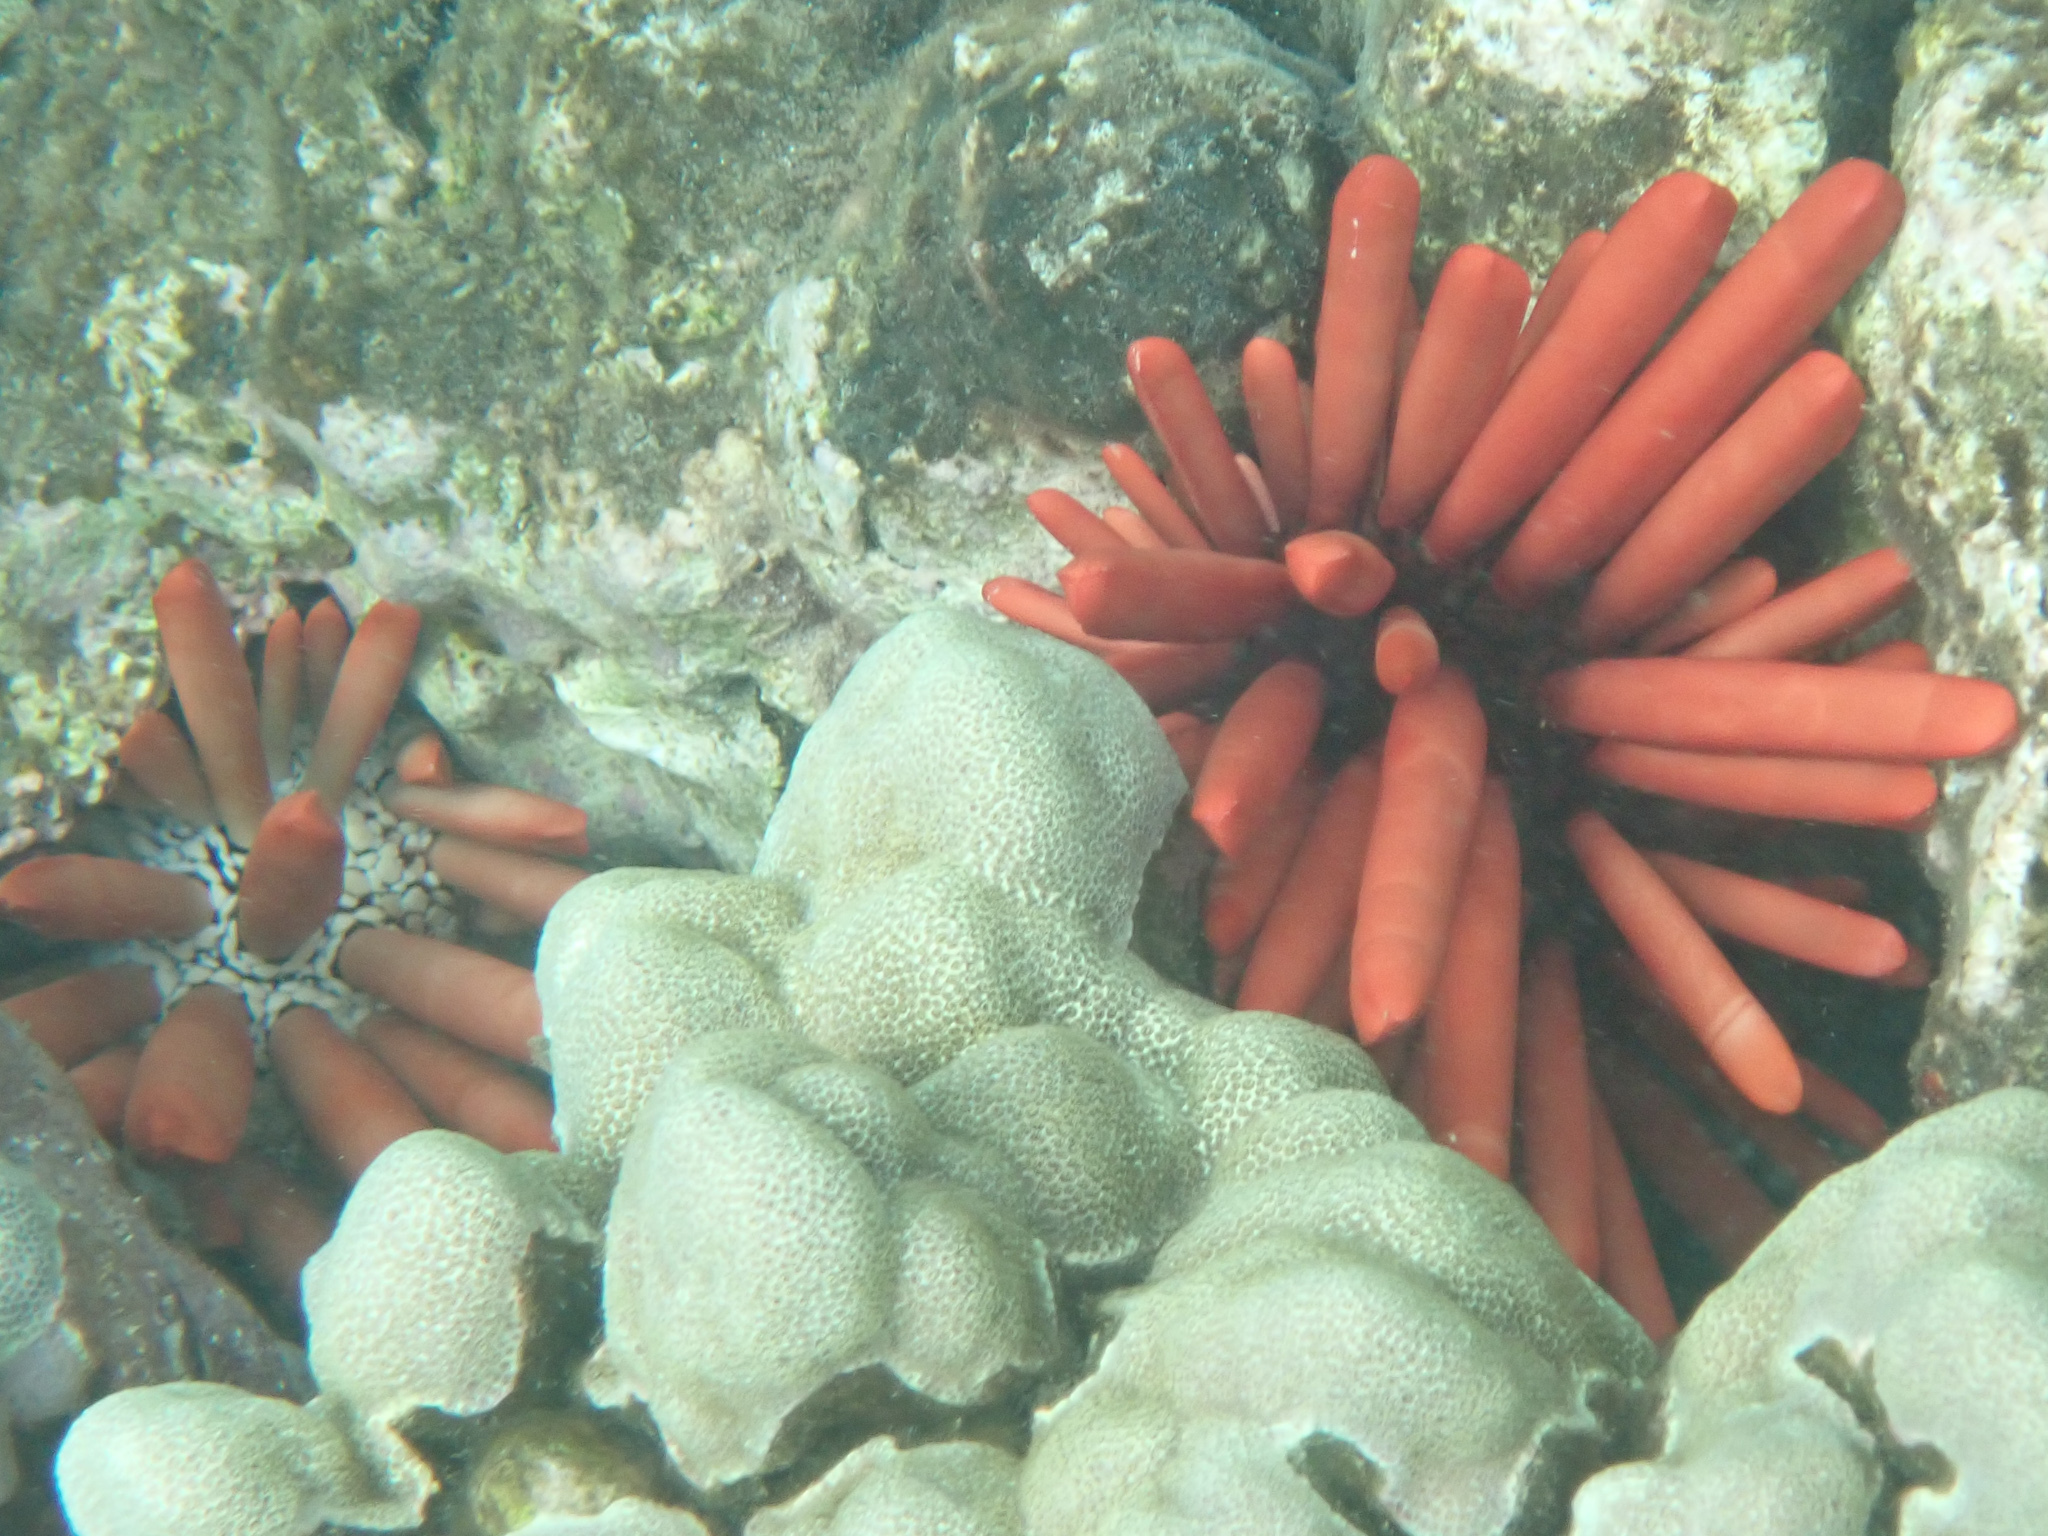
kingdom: Animalia
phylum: Echinodermata
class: Echinoidea
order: Camarodonta
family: Echinometridae
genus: Heterocentrotus
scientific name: Heterocentrotus mamillatus
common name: Slate pencil urchin
